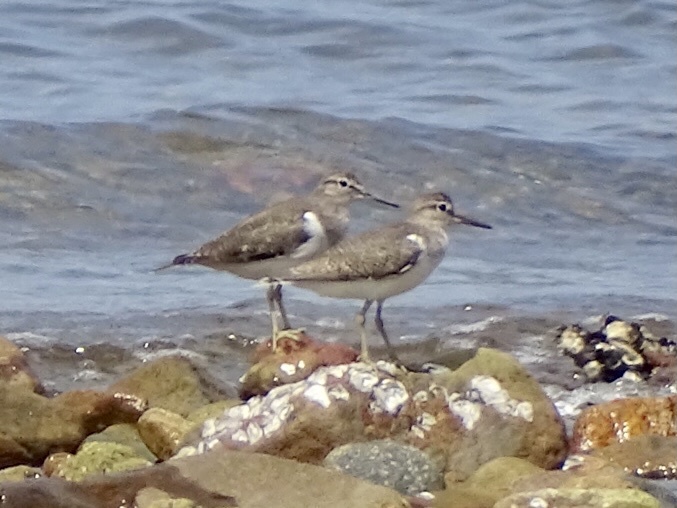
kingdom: Animalia
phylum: Chordata
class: Aves
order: Charadriiformes
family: Scolopacidae
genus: Actitis
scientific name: Actitis hypoleucos
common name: Common sandpiper
